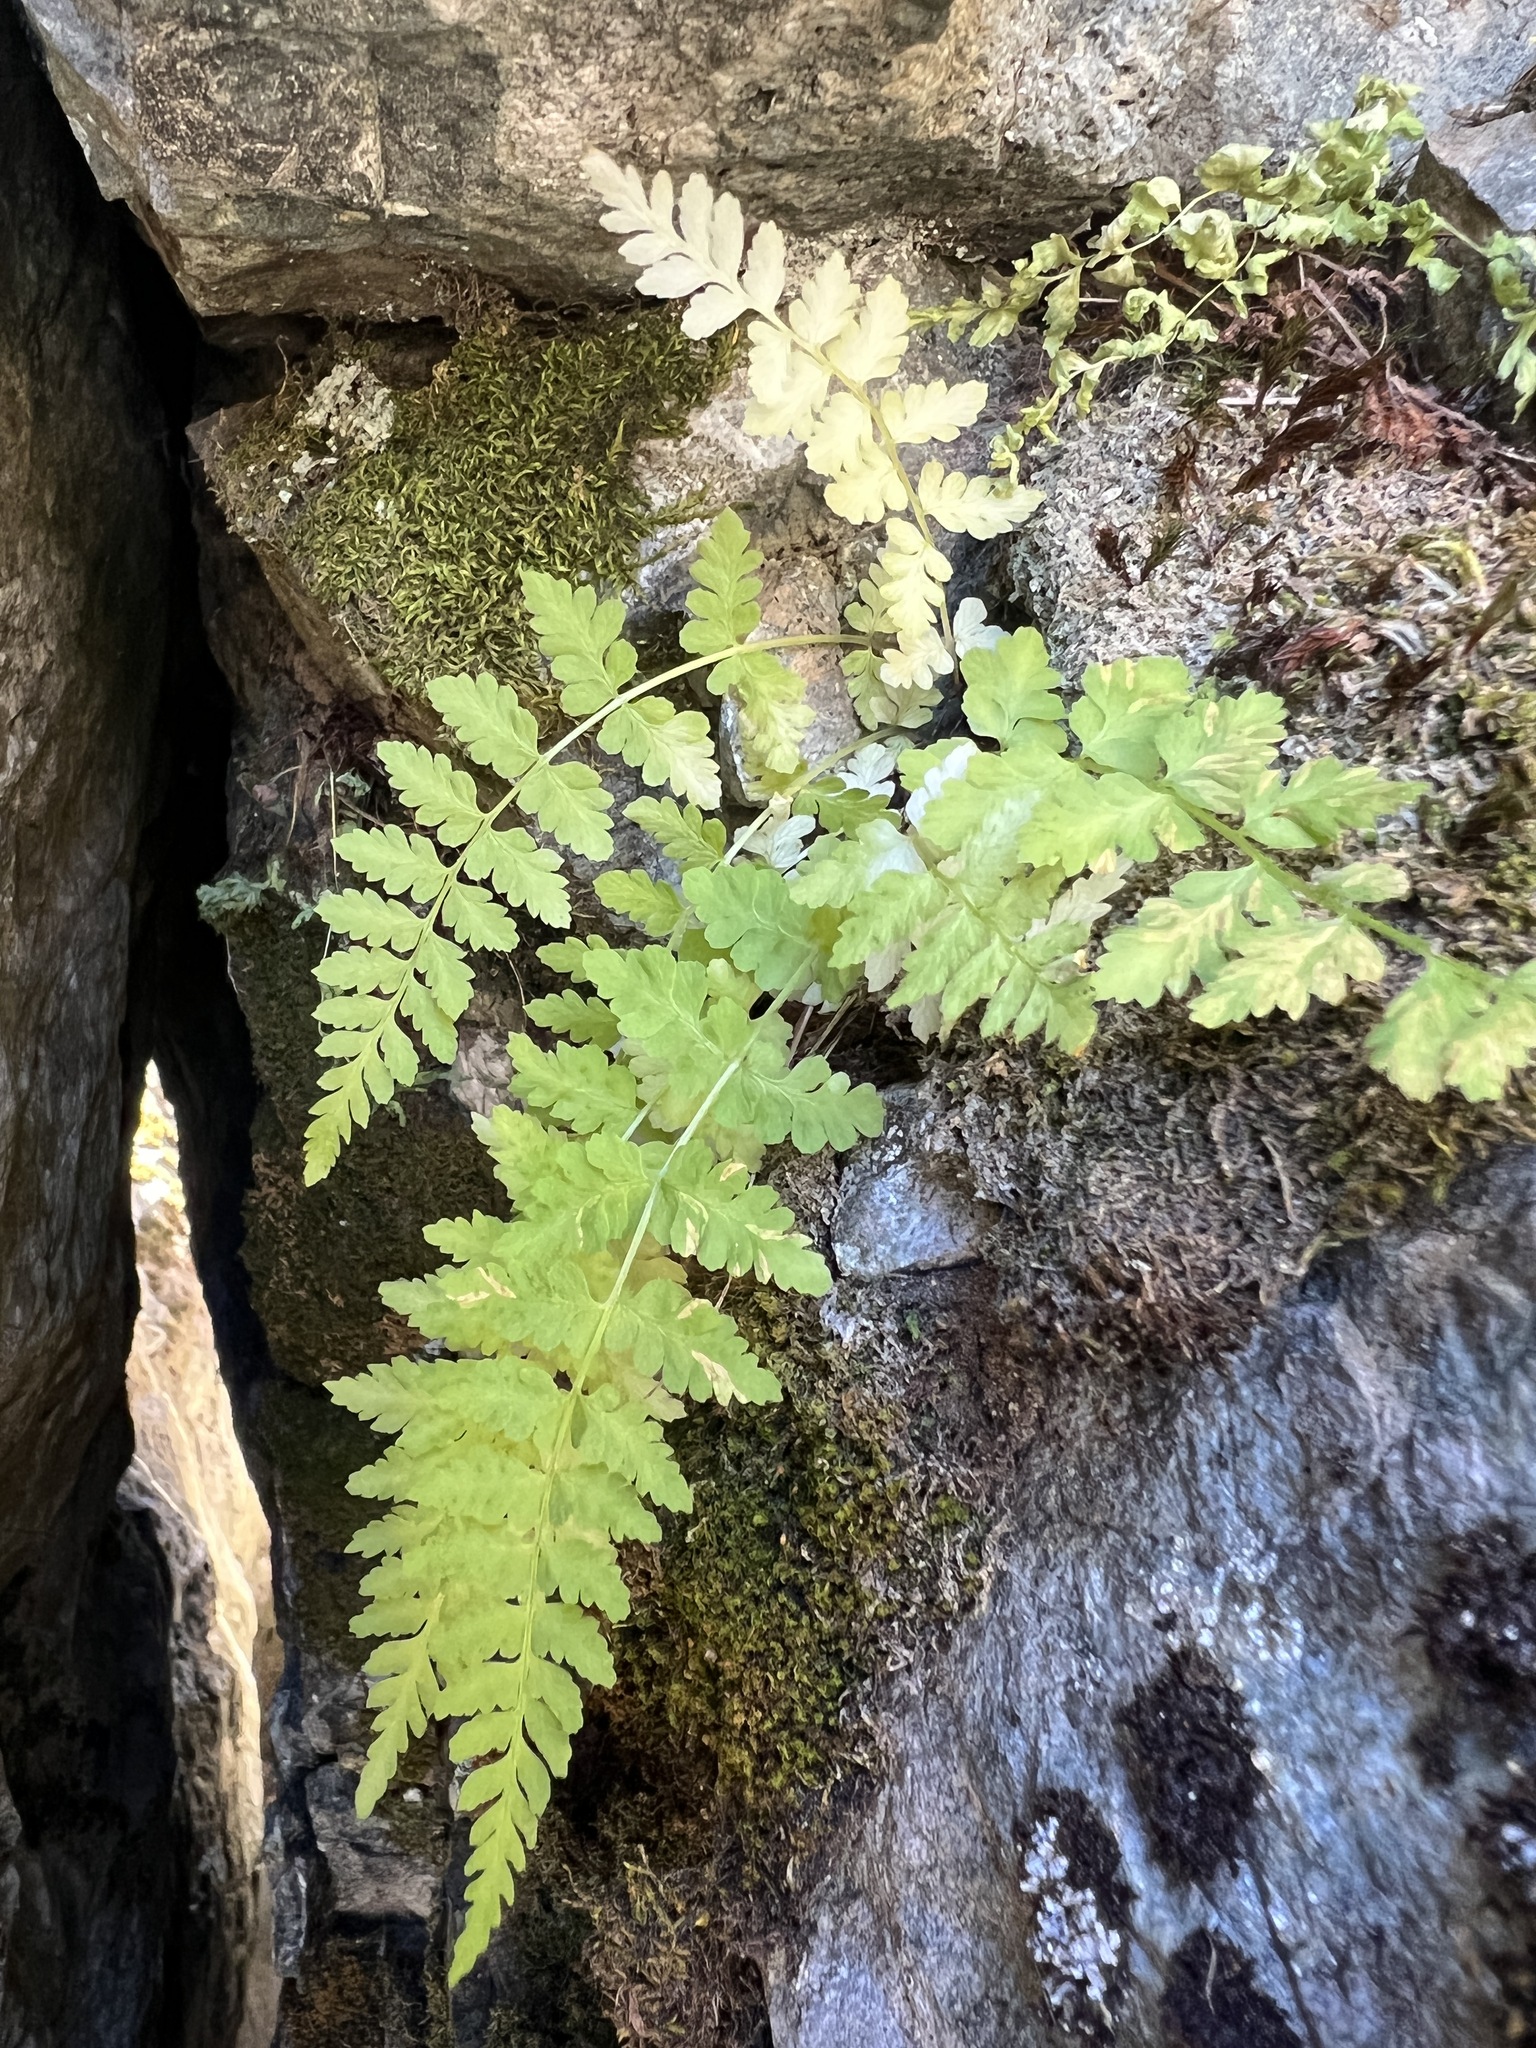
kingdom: Plantae
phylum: Tracheophyta
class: Polypodiopsida
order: Polypodiales
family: Cystopteridaceae
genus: Cystopteris
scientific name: Cystopteris fragilis
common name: Brittle bladder fern
